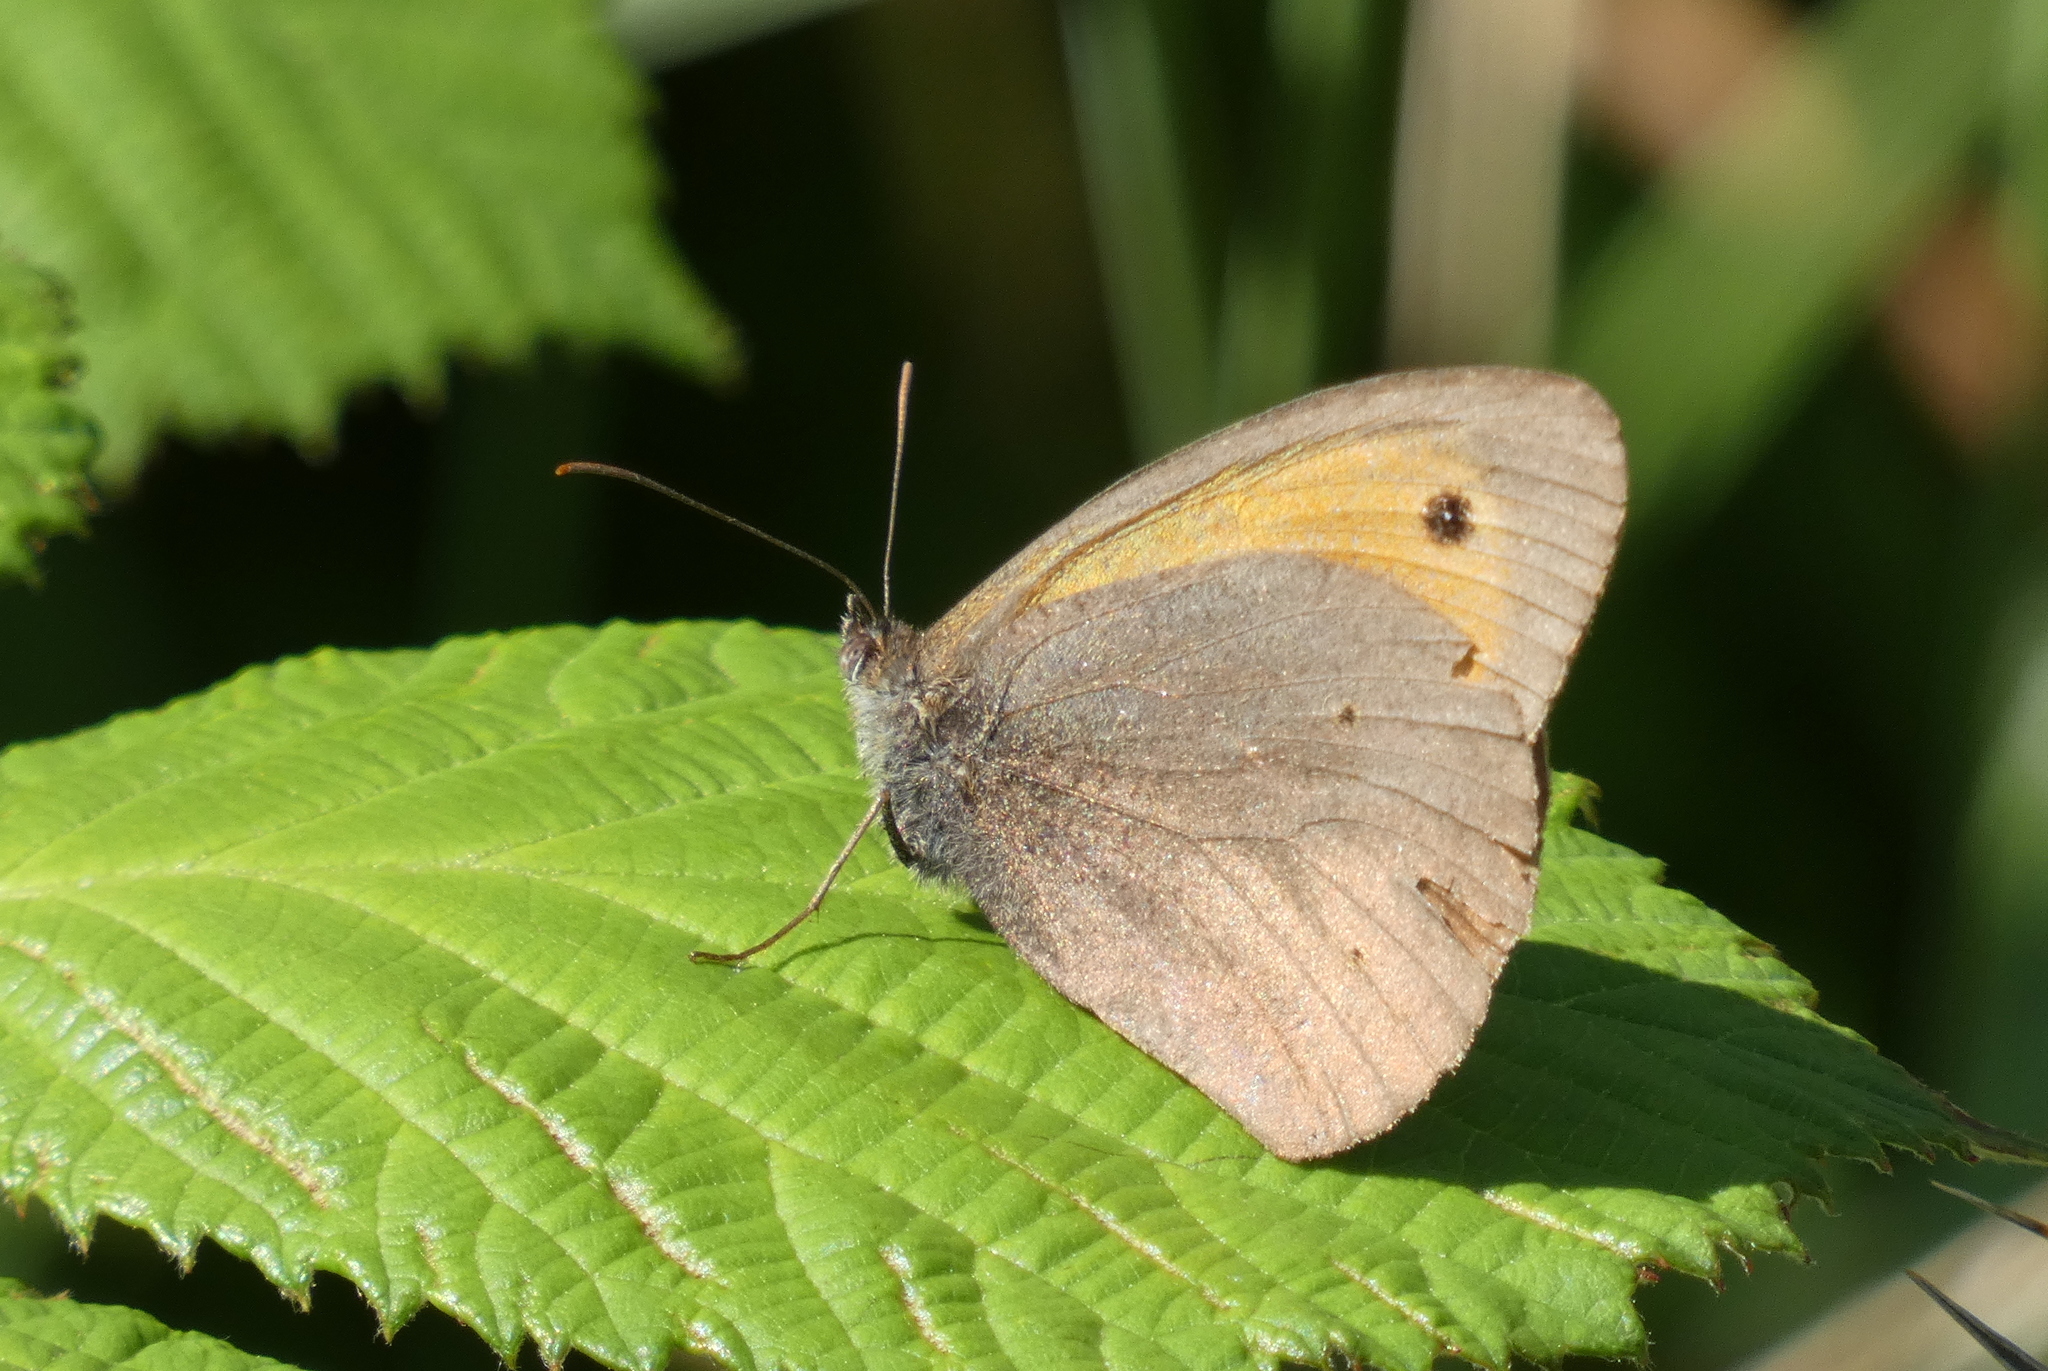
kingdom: Animalia
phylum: Arthropoda
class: Insecta
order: Lepidoptera
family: Nymphalidae
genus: Maniola
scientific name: Maniola jurtina
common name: Meadow brown
